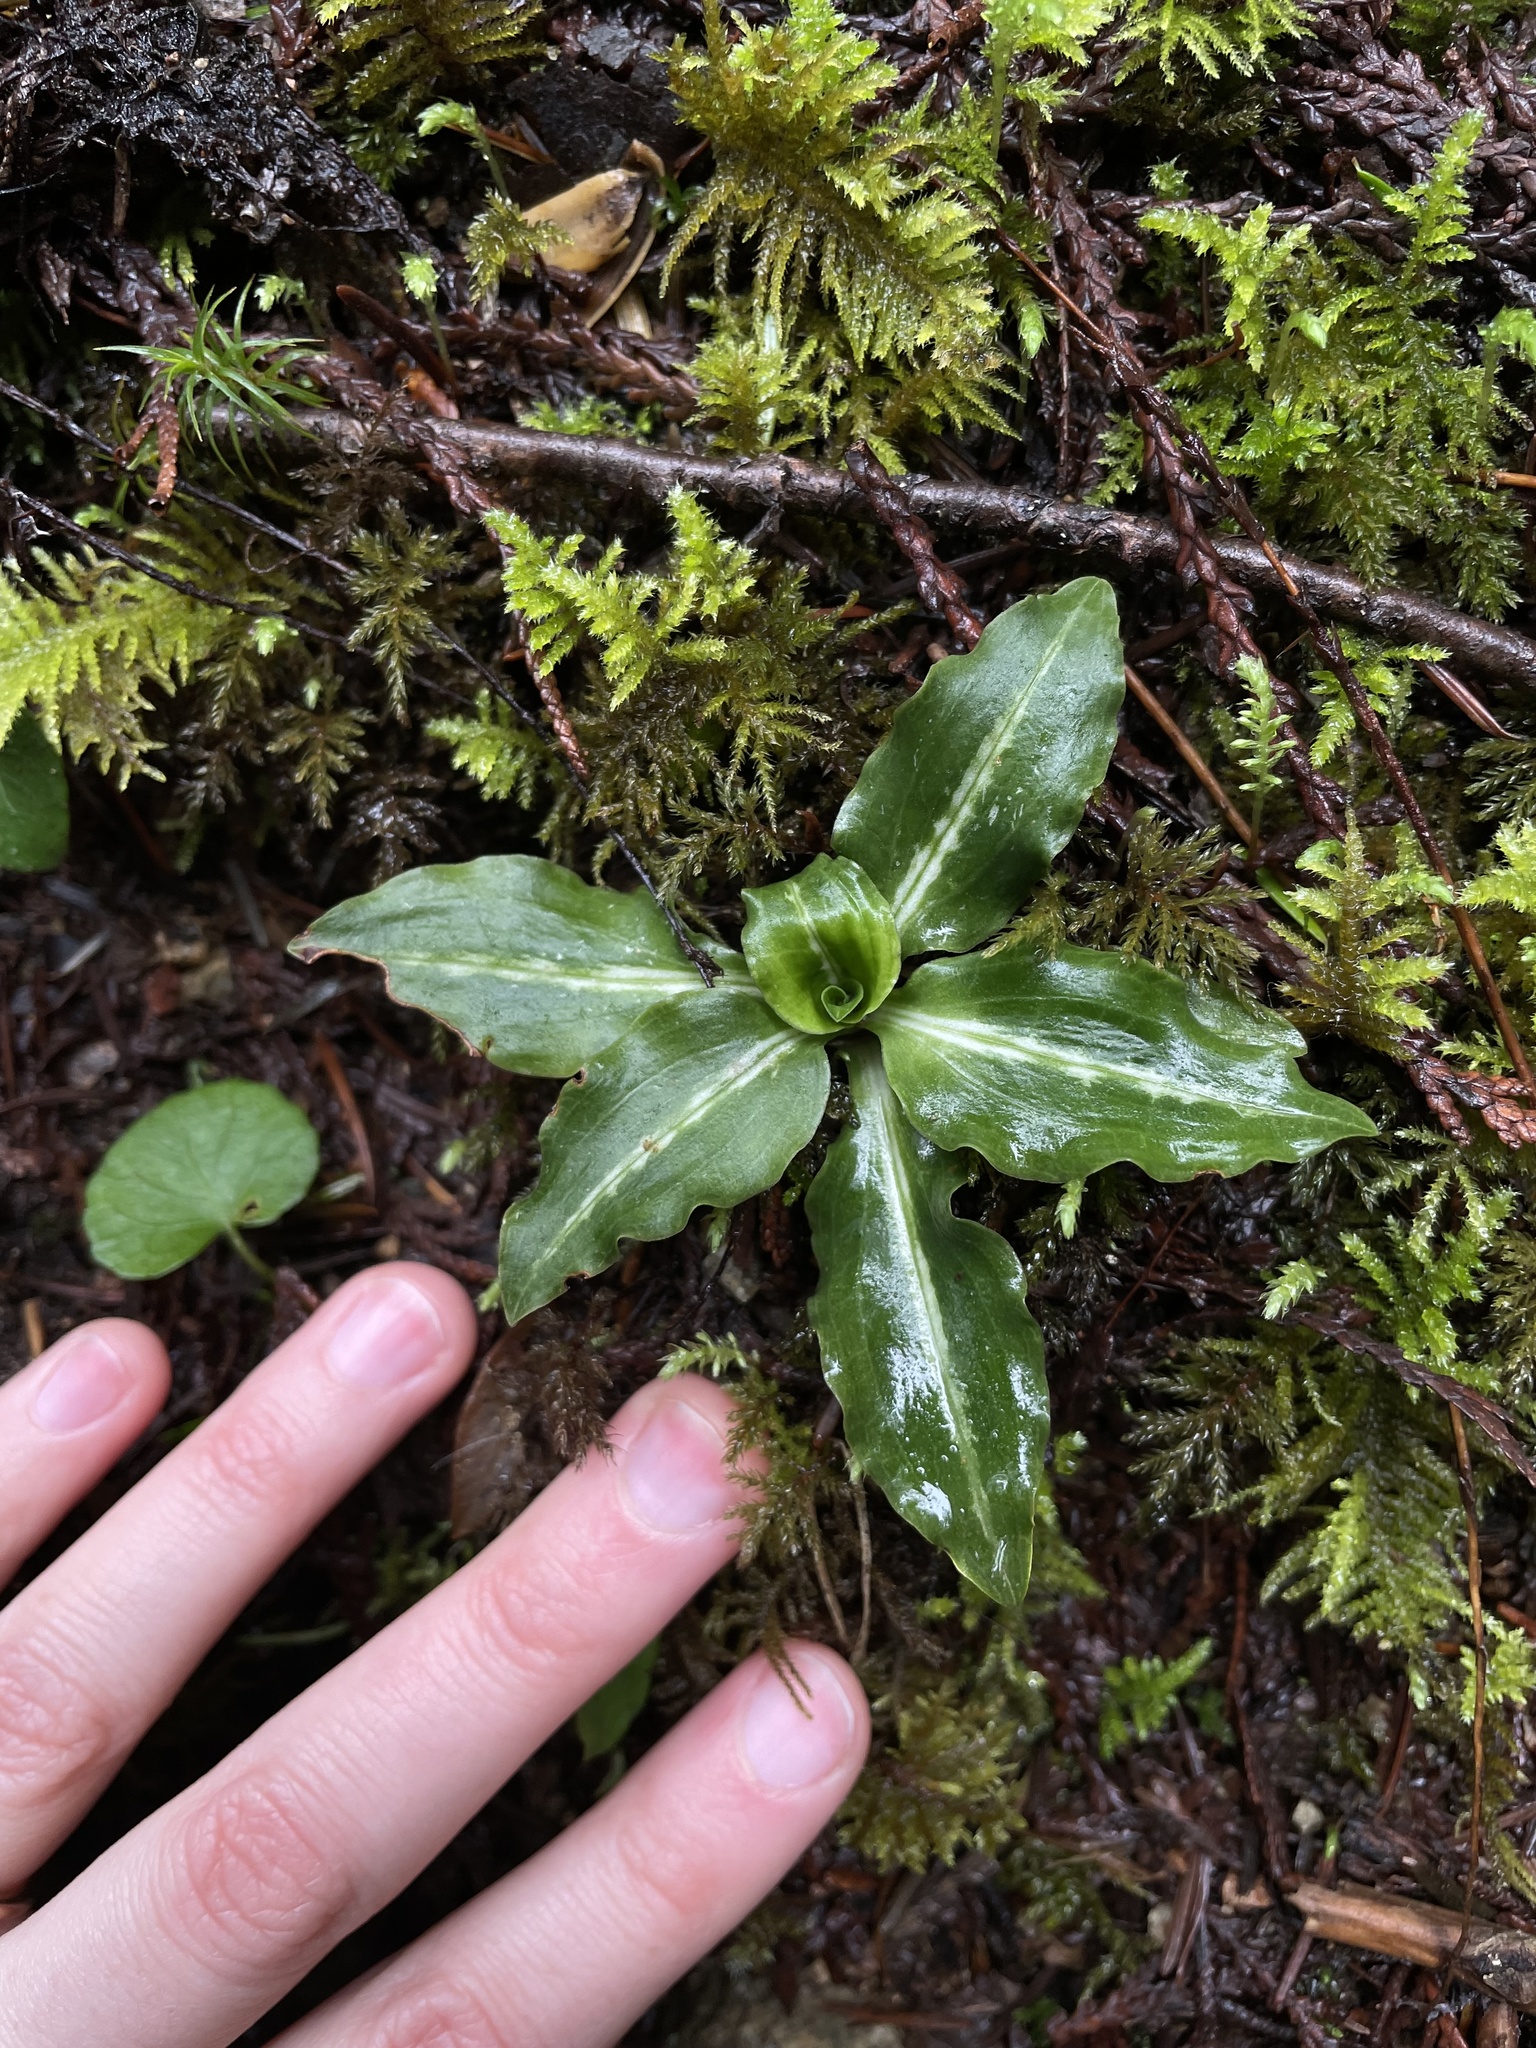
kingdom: Plantae
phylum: Tracheophyta
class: Liliopsida
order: Asparagales
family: Orchidaceae
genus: Goodyera
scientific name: Goodyera oblongifolia
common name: Giant rattlesnake-plantain
